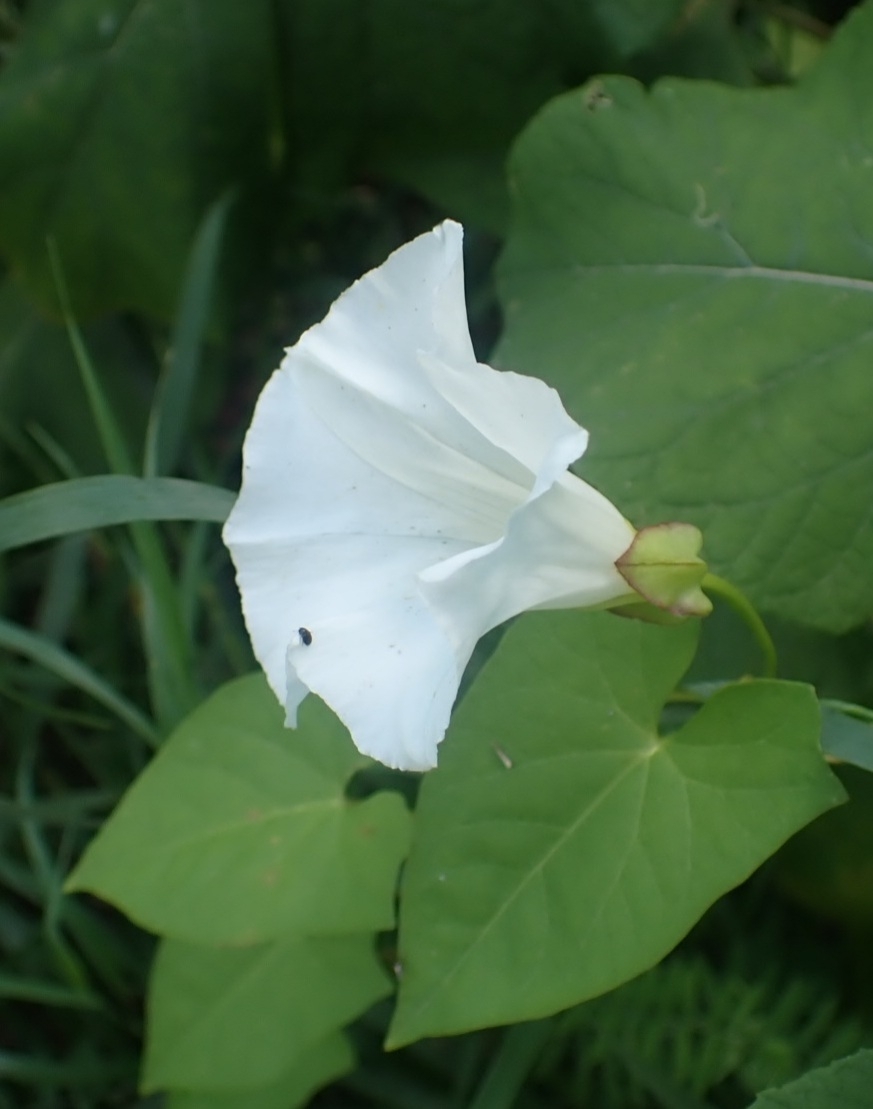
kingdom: Plantae
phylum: Tracheophyta
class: Magnoliopsida
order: Solanales
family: Convolvulaceae
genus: Calystegia
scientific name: Calystegia sepium
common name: Hedge bindweed
